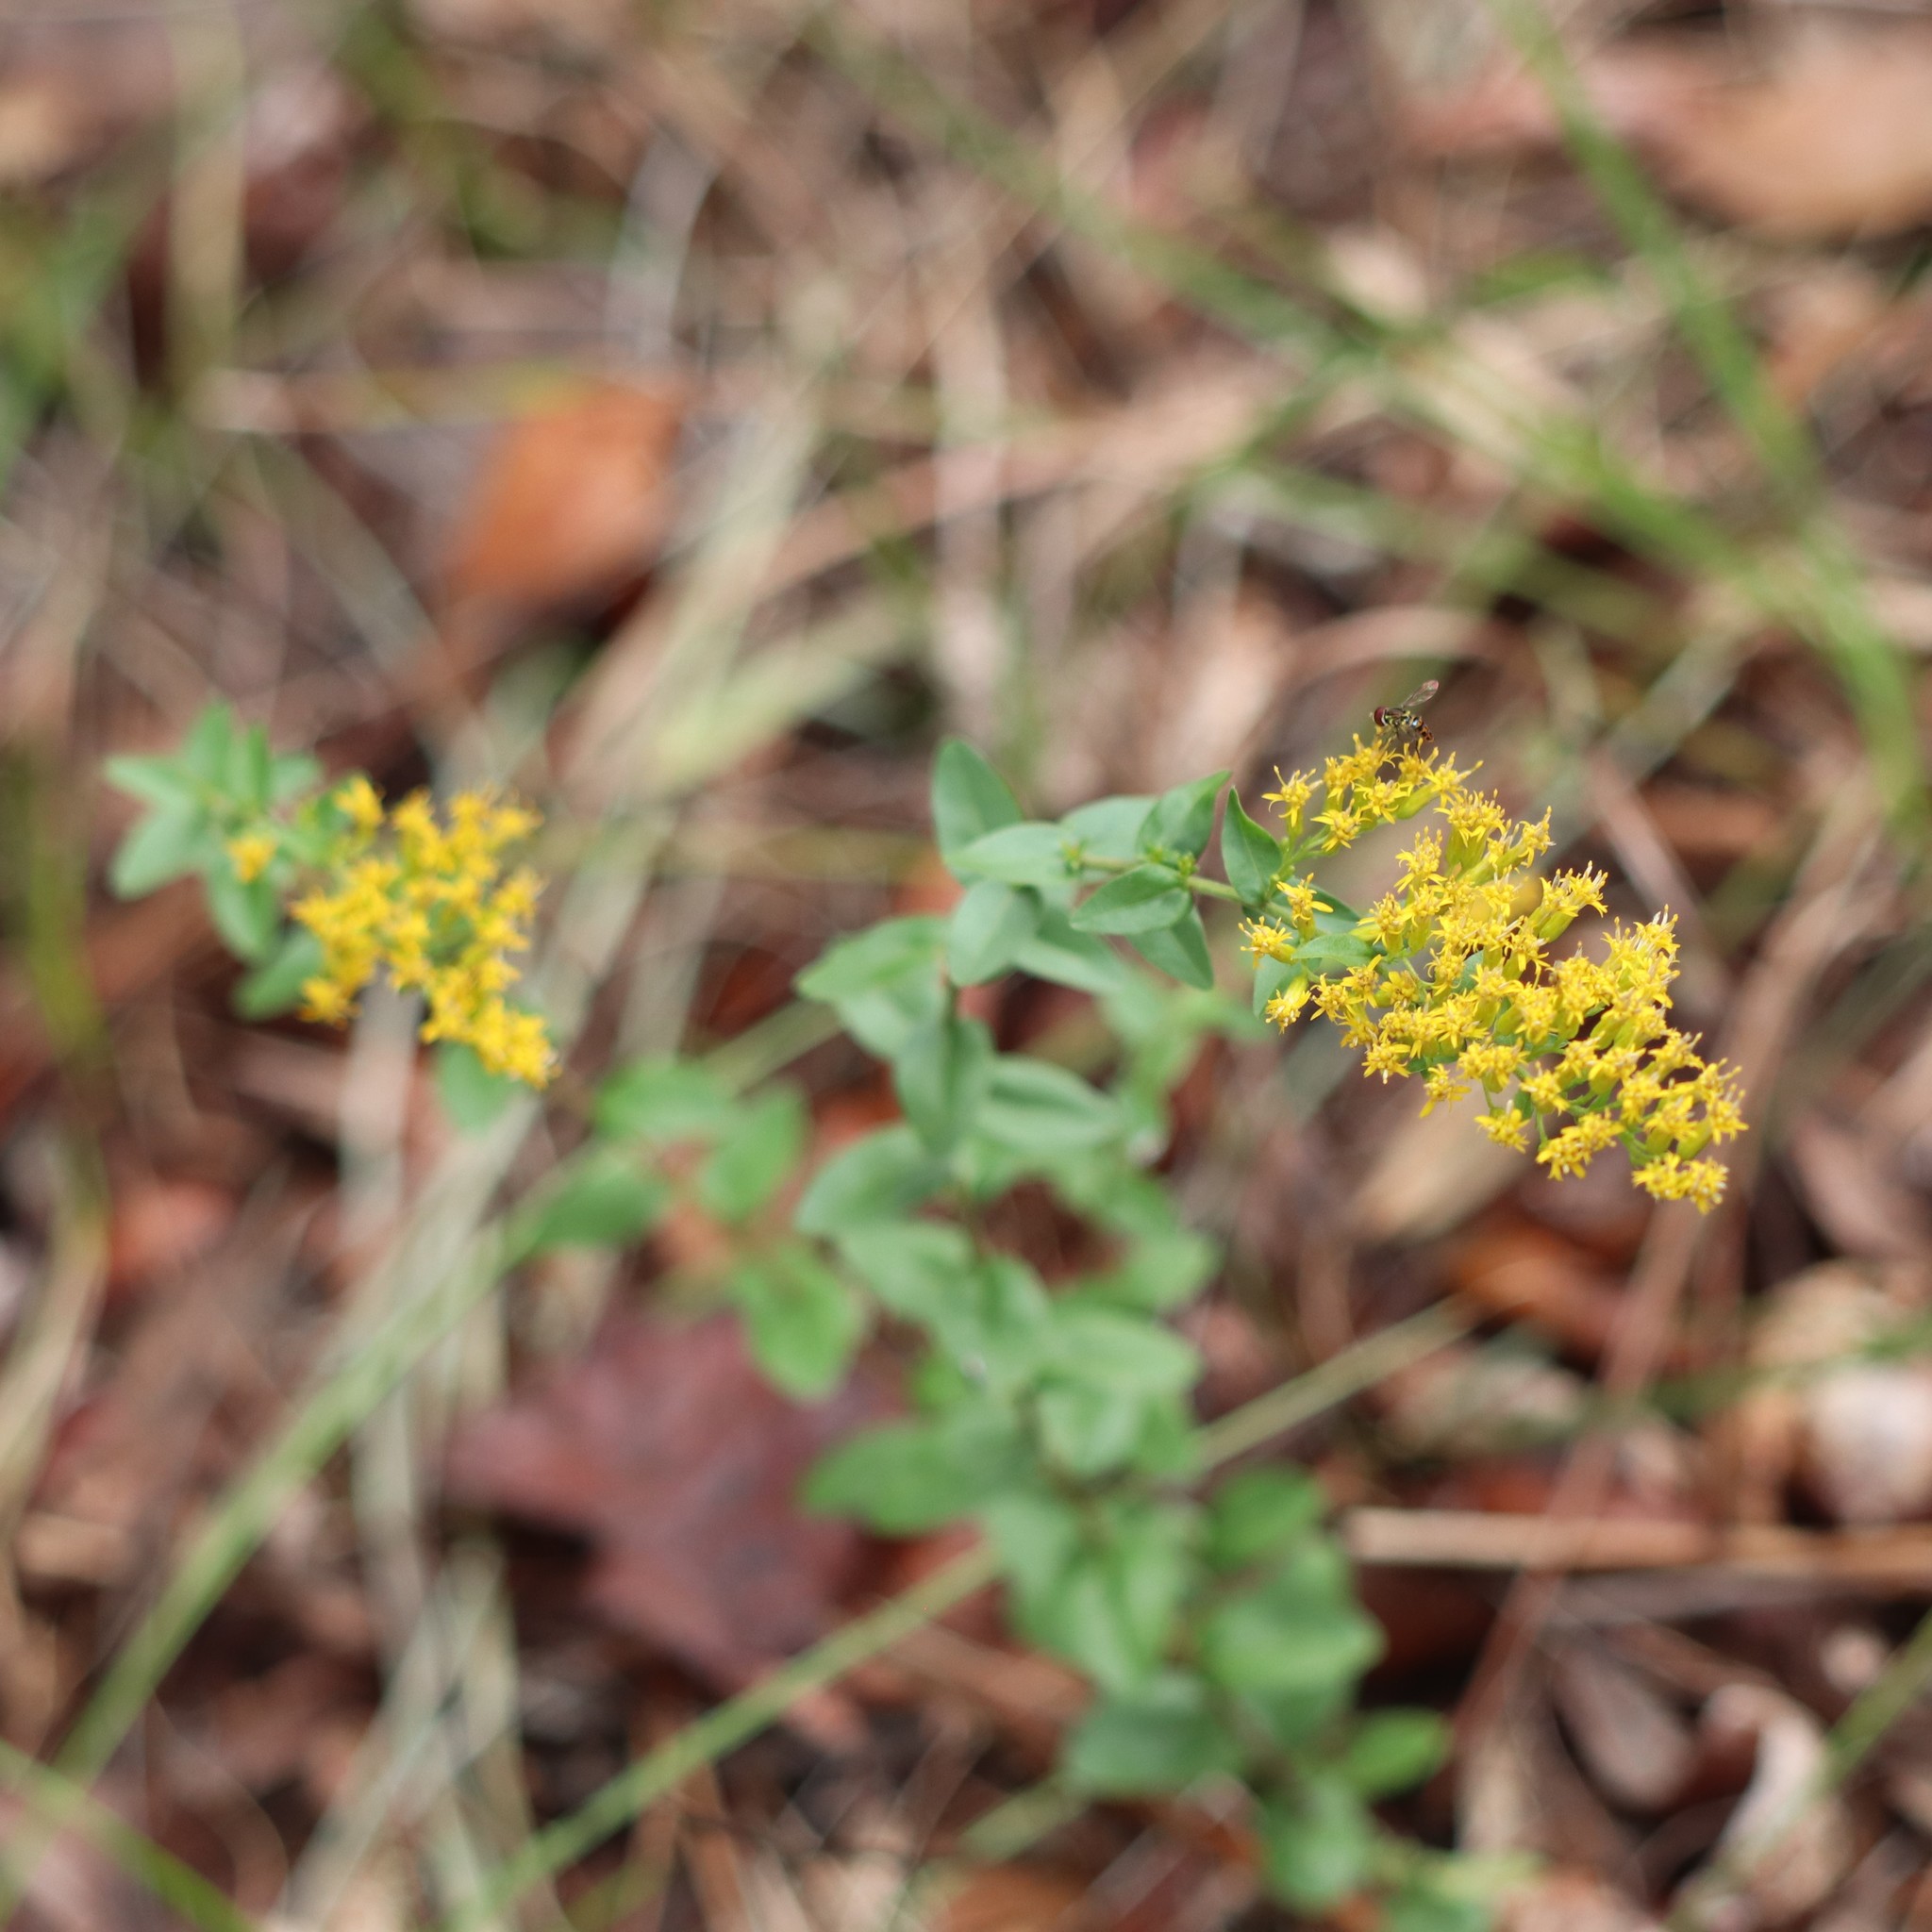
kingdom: Plantae
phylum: Tracheophyta
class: Magnoliopsida
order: Asterales
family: Asteraceae
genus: Solidago
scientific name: Solidago chapmanii
